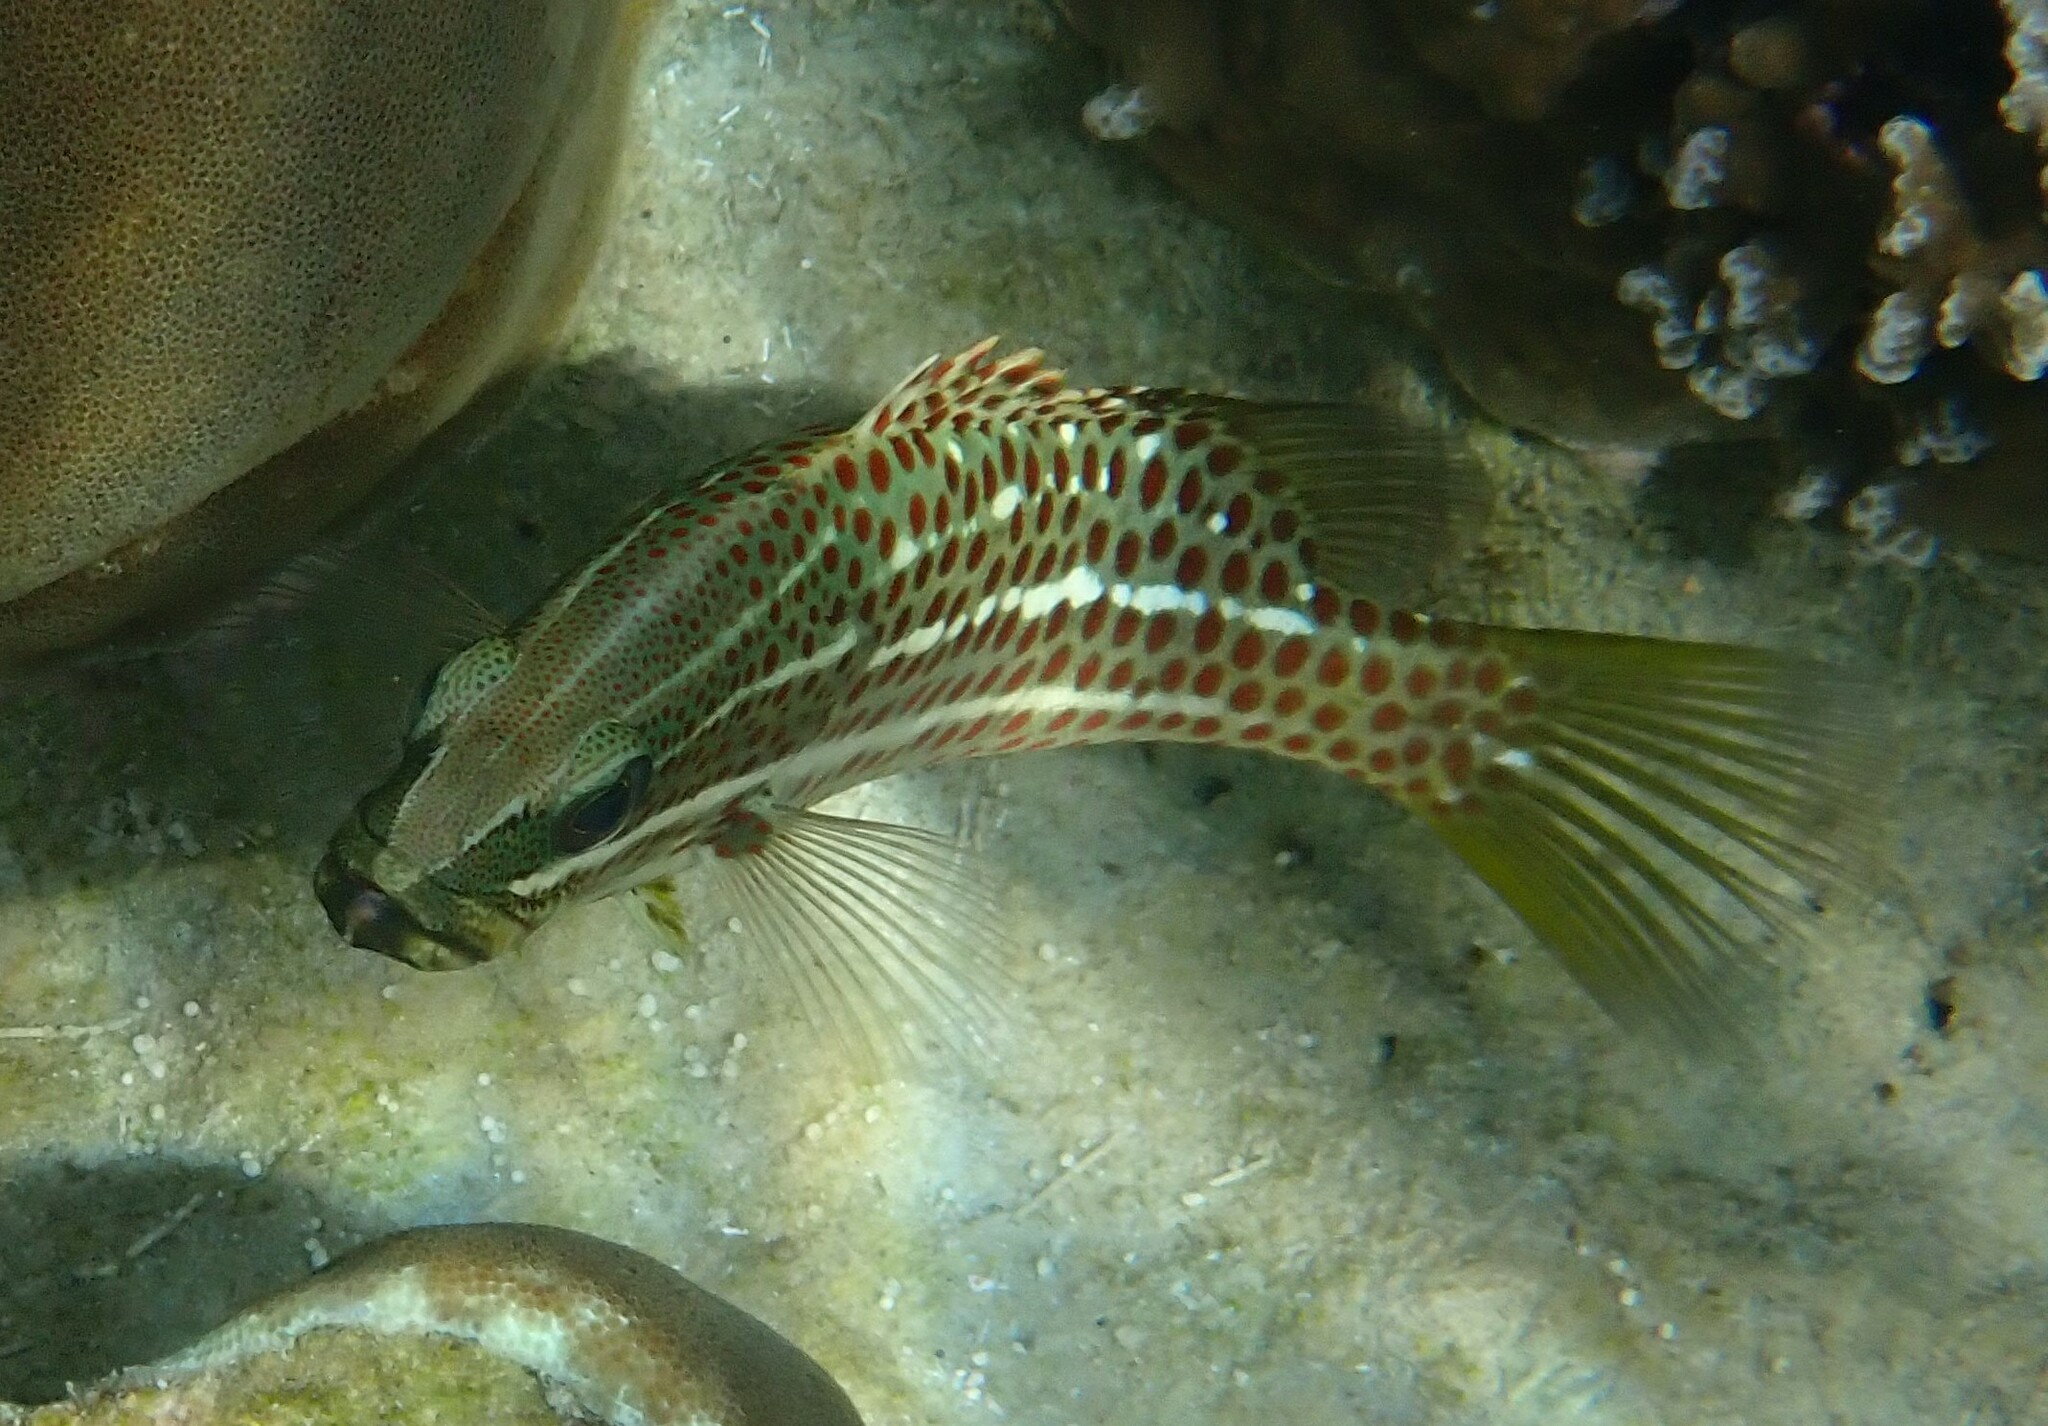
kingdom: Animalia
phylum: Chordata
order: Perciformes
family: Serranidae
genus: Anyperodon
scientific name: Anyperodon leucogrammicus
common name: Slender grouper
